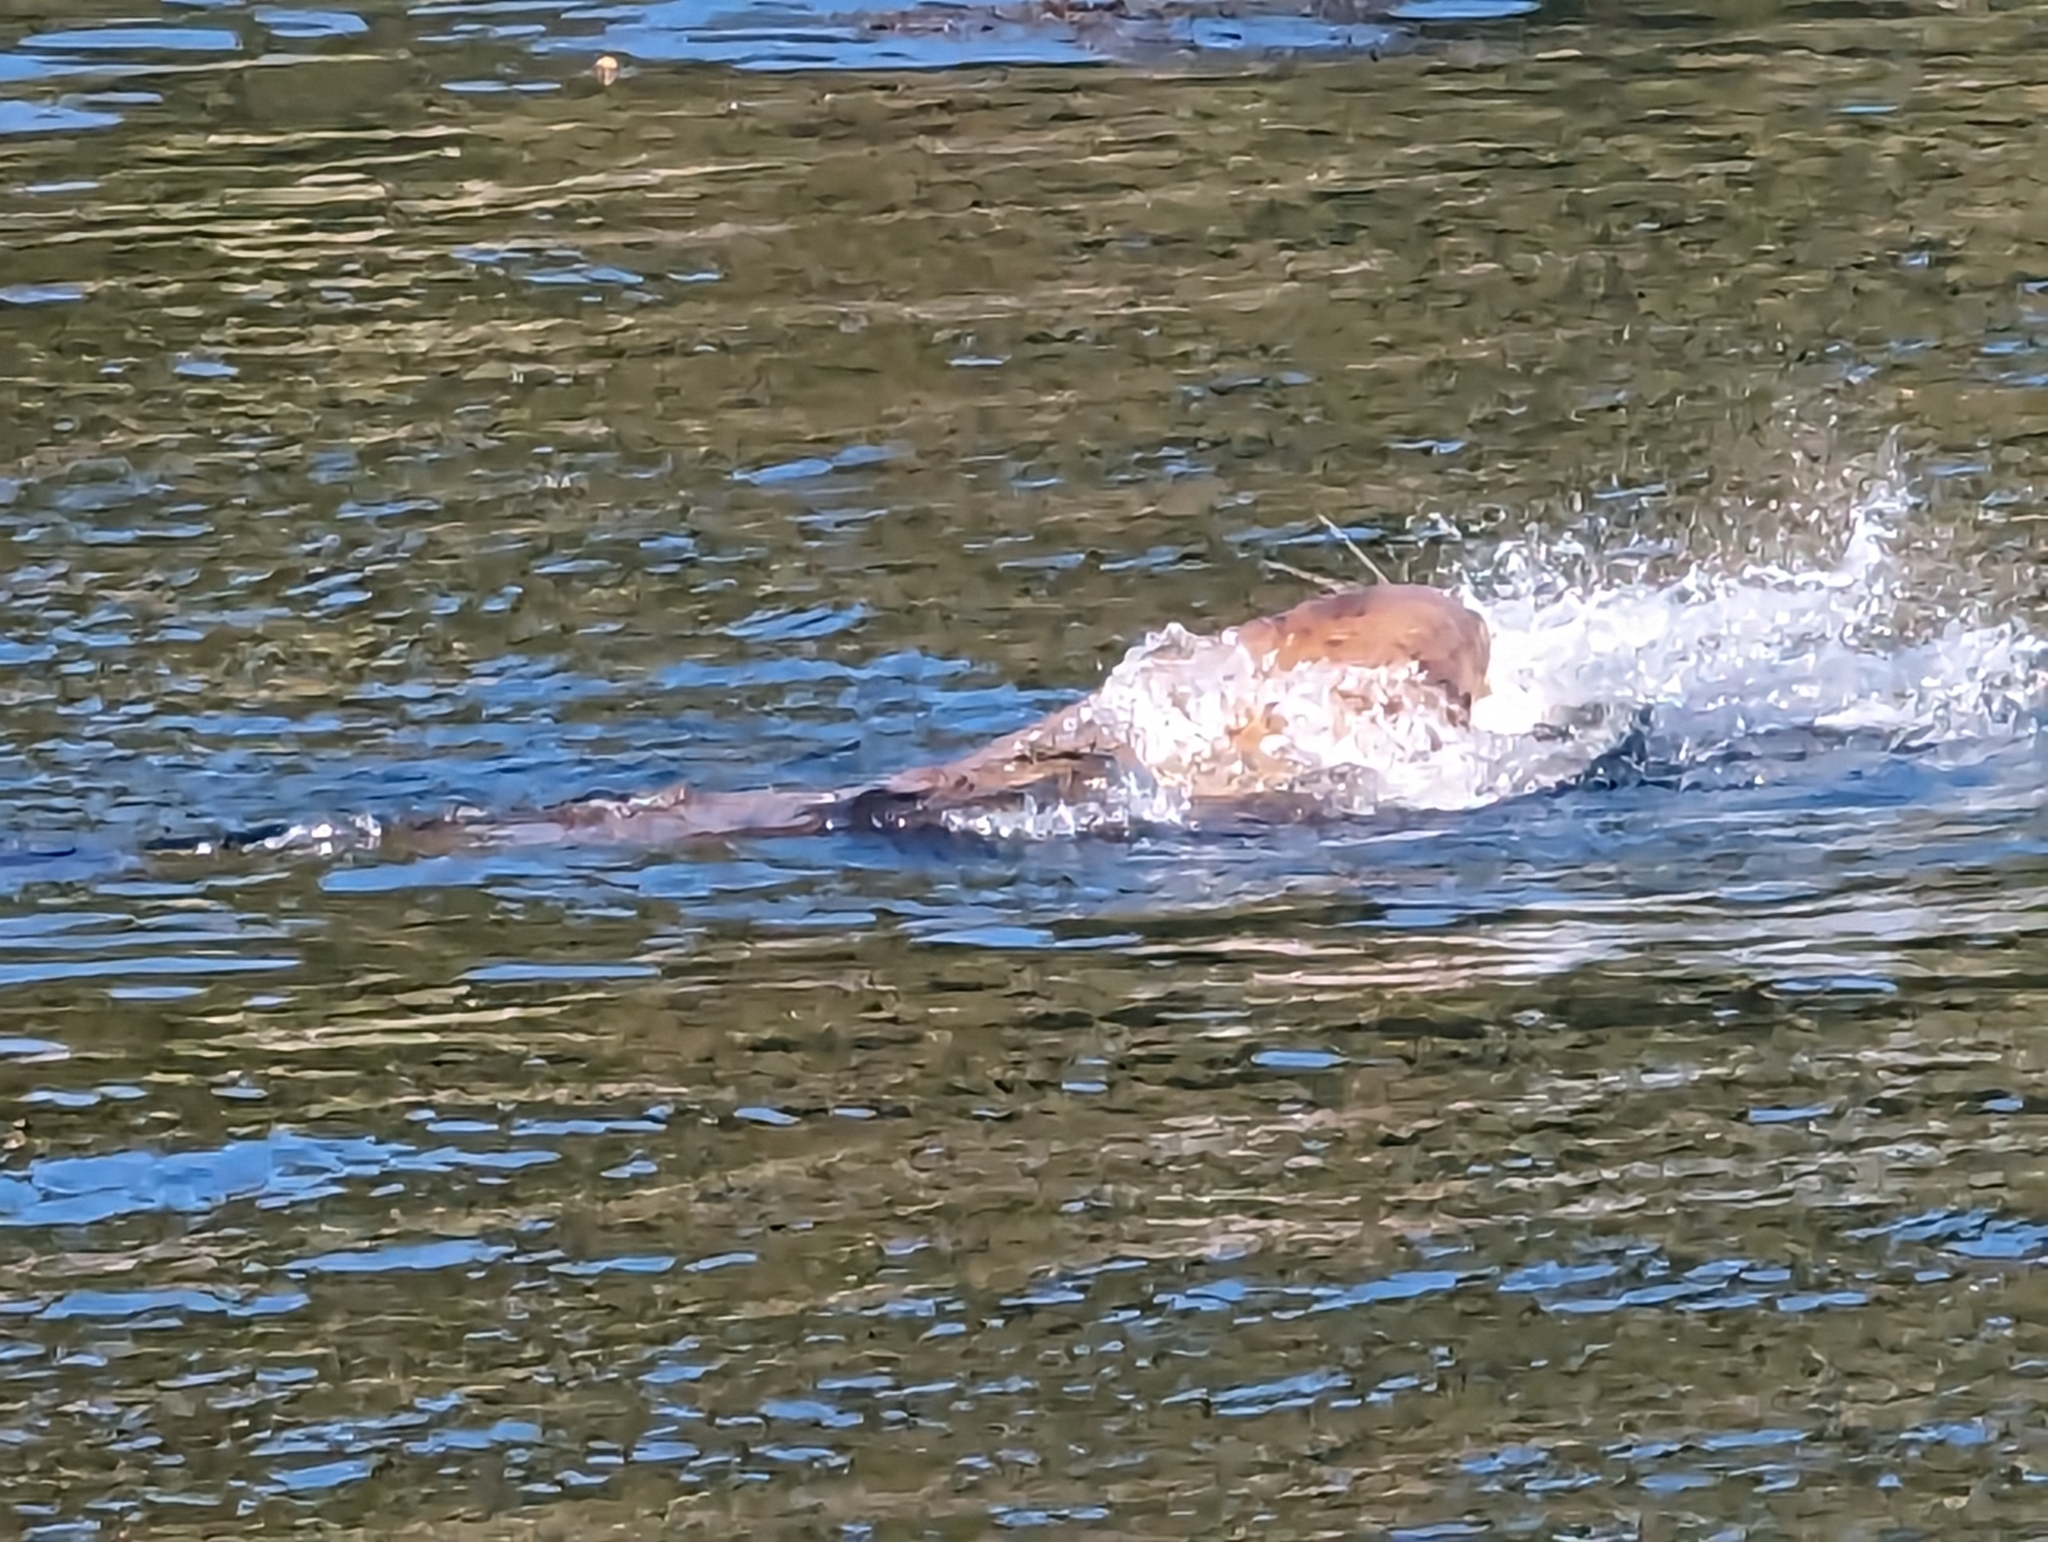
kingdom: Animalia
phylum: Chordata
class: Mammalia
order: Carnivora
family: Otariidae
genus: Eumetopias
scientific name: Eumetopias jubatus
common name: Steller sea lion
